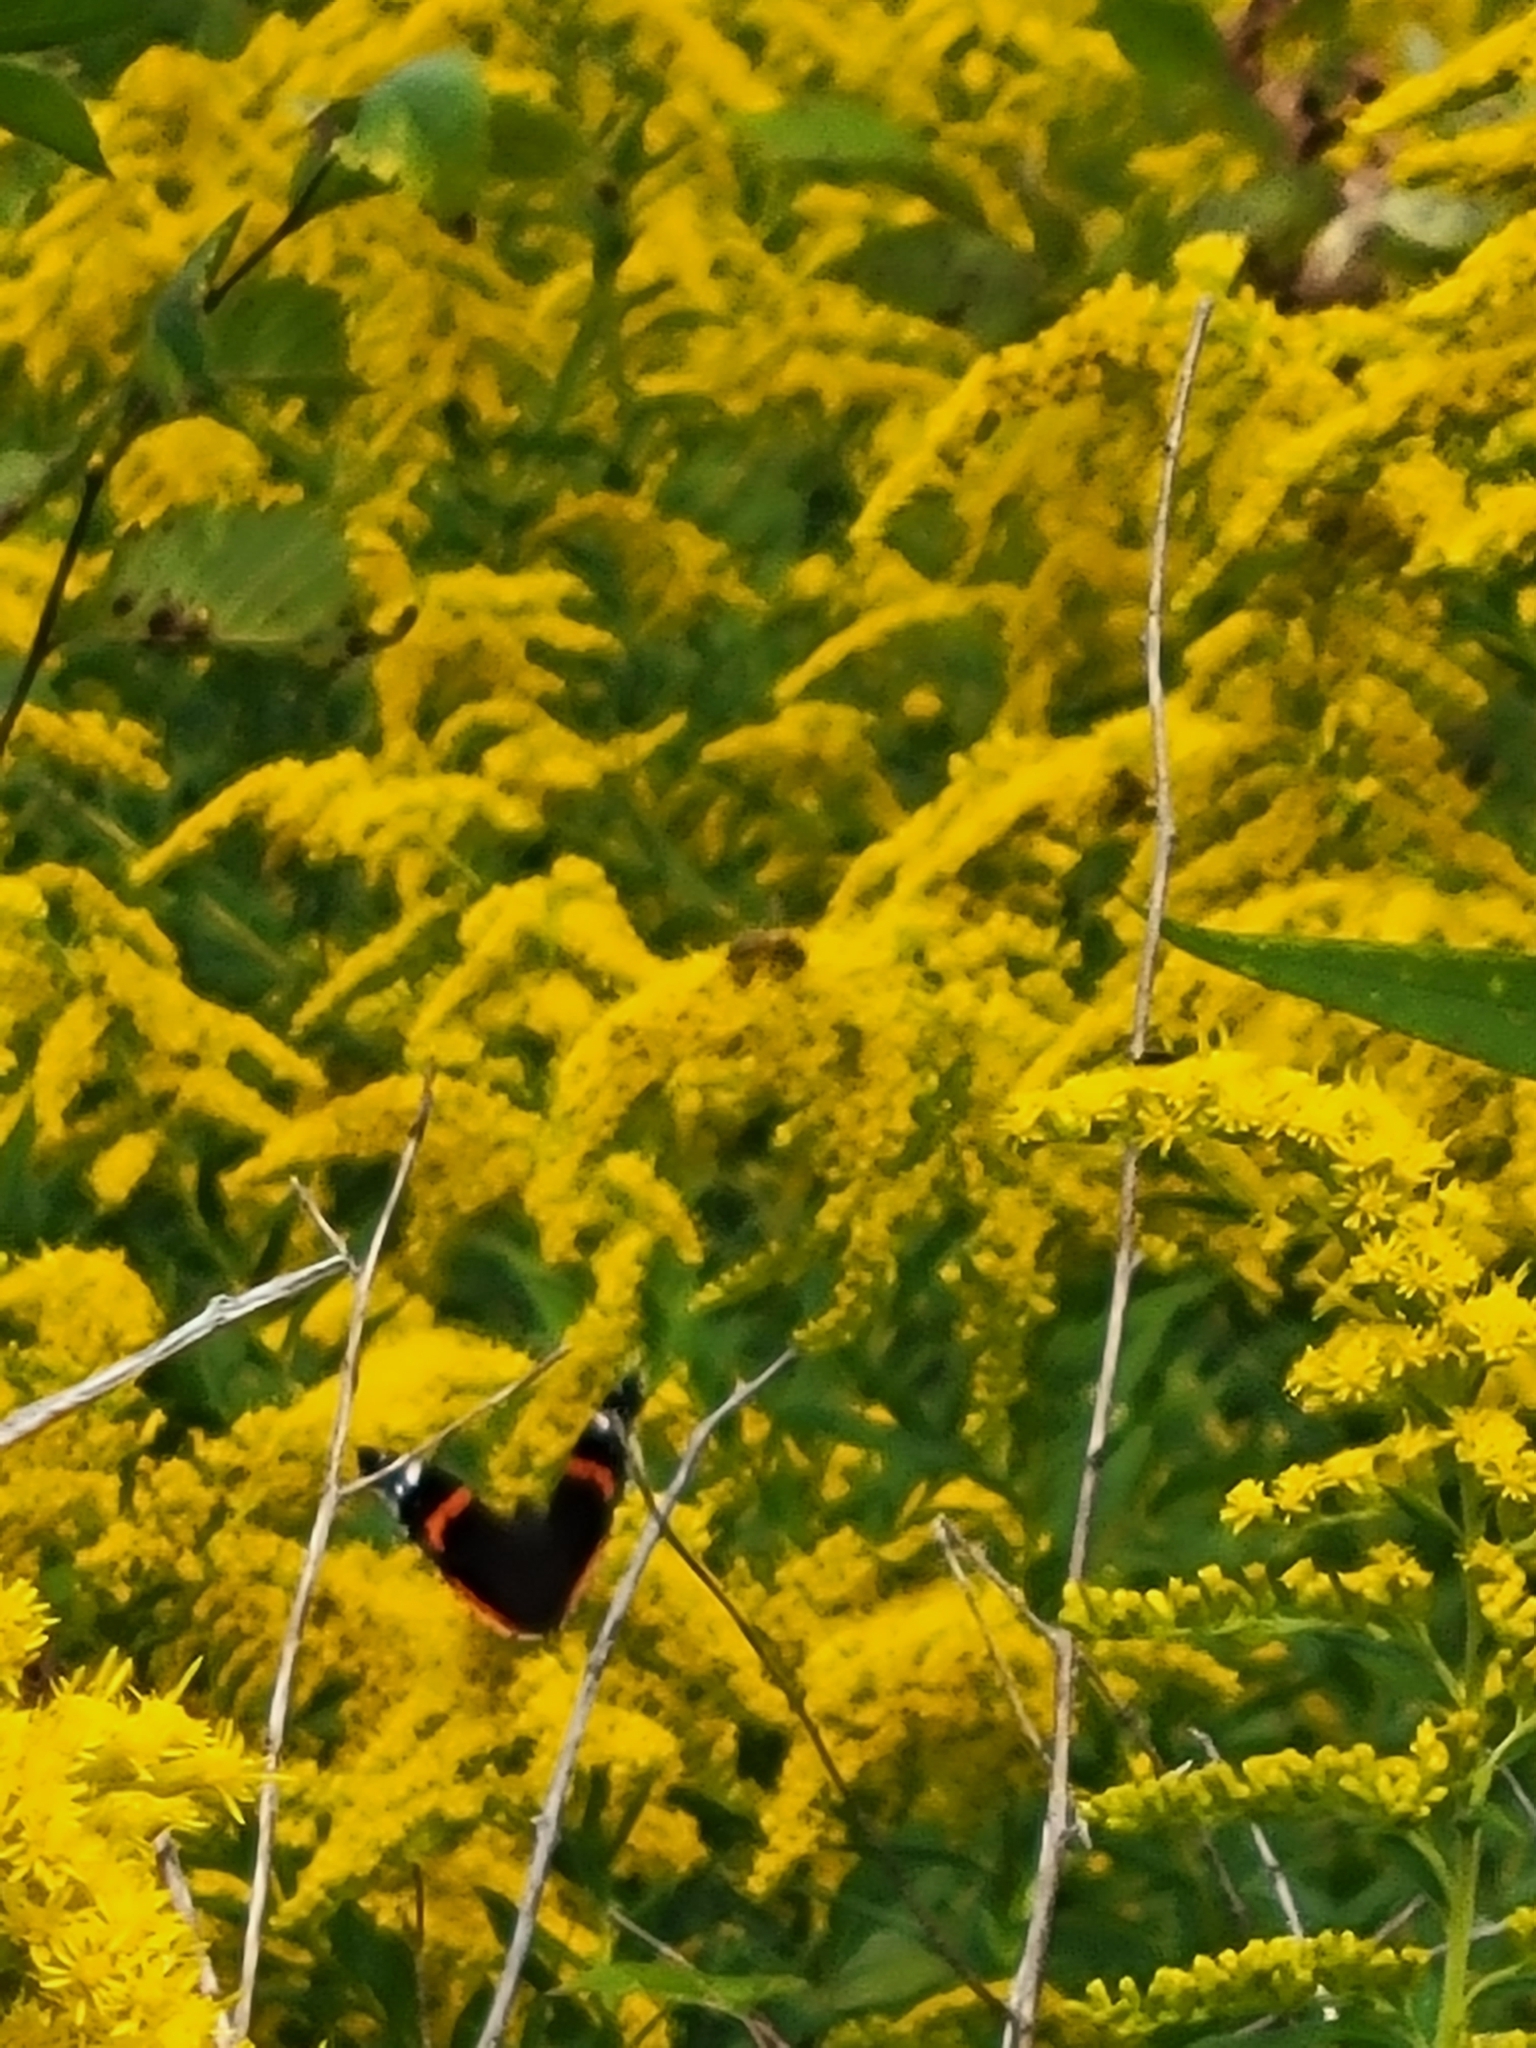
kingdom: Animalia
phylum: Arthropoda
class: Insecta
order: Lepidoptera
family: Nymphalidae
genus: Vanessa
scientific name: Vanessa atalanta
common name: Red admiral
